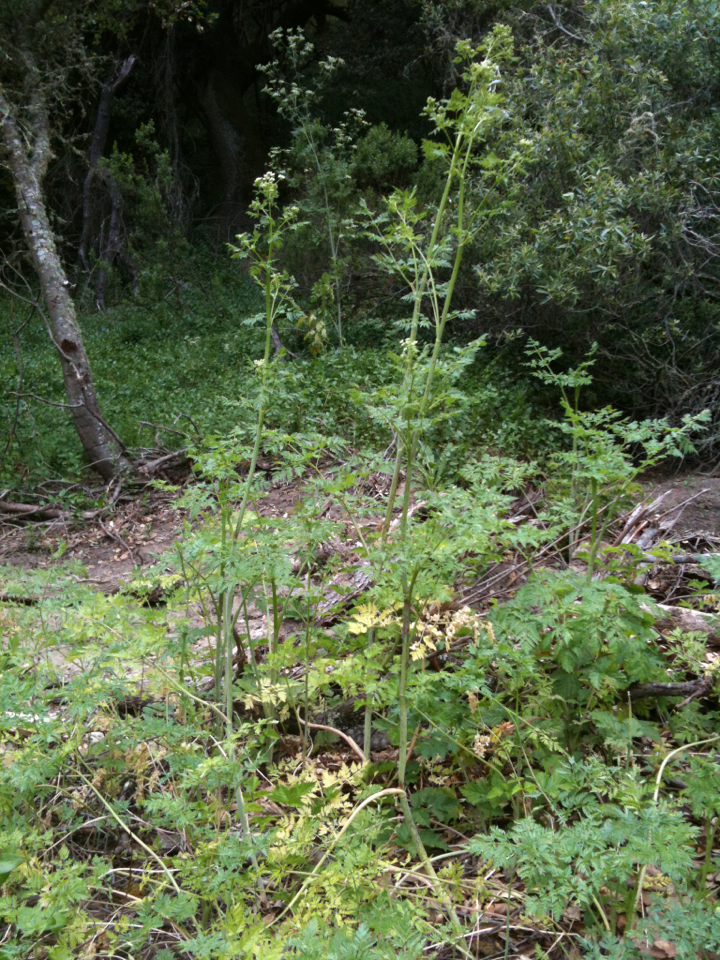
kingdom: Plantae
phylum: Tracheophyta
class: Magnoliopsida
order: Apiales
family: Apiaceae
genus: Conium
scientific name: Conium maculatum
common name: Hemlock
